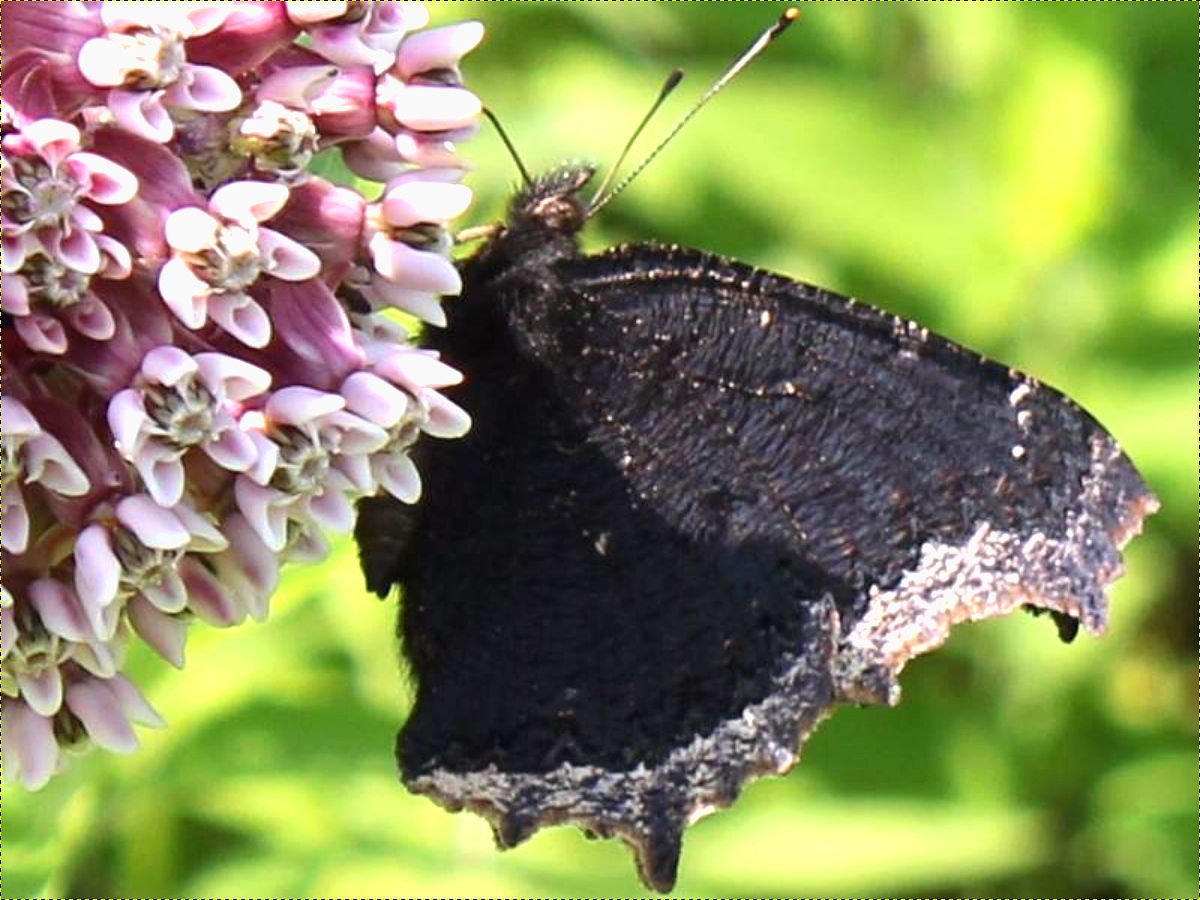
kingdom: Animalia
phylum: Arthropoda
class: Insecta
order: Lepidoptera
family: Nymphalidae
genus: Nymphalis
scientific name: Nymphalis antiopa
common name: Camberwell beauty
